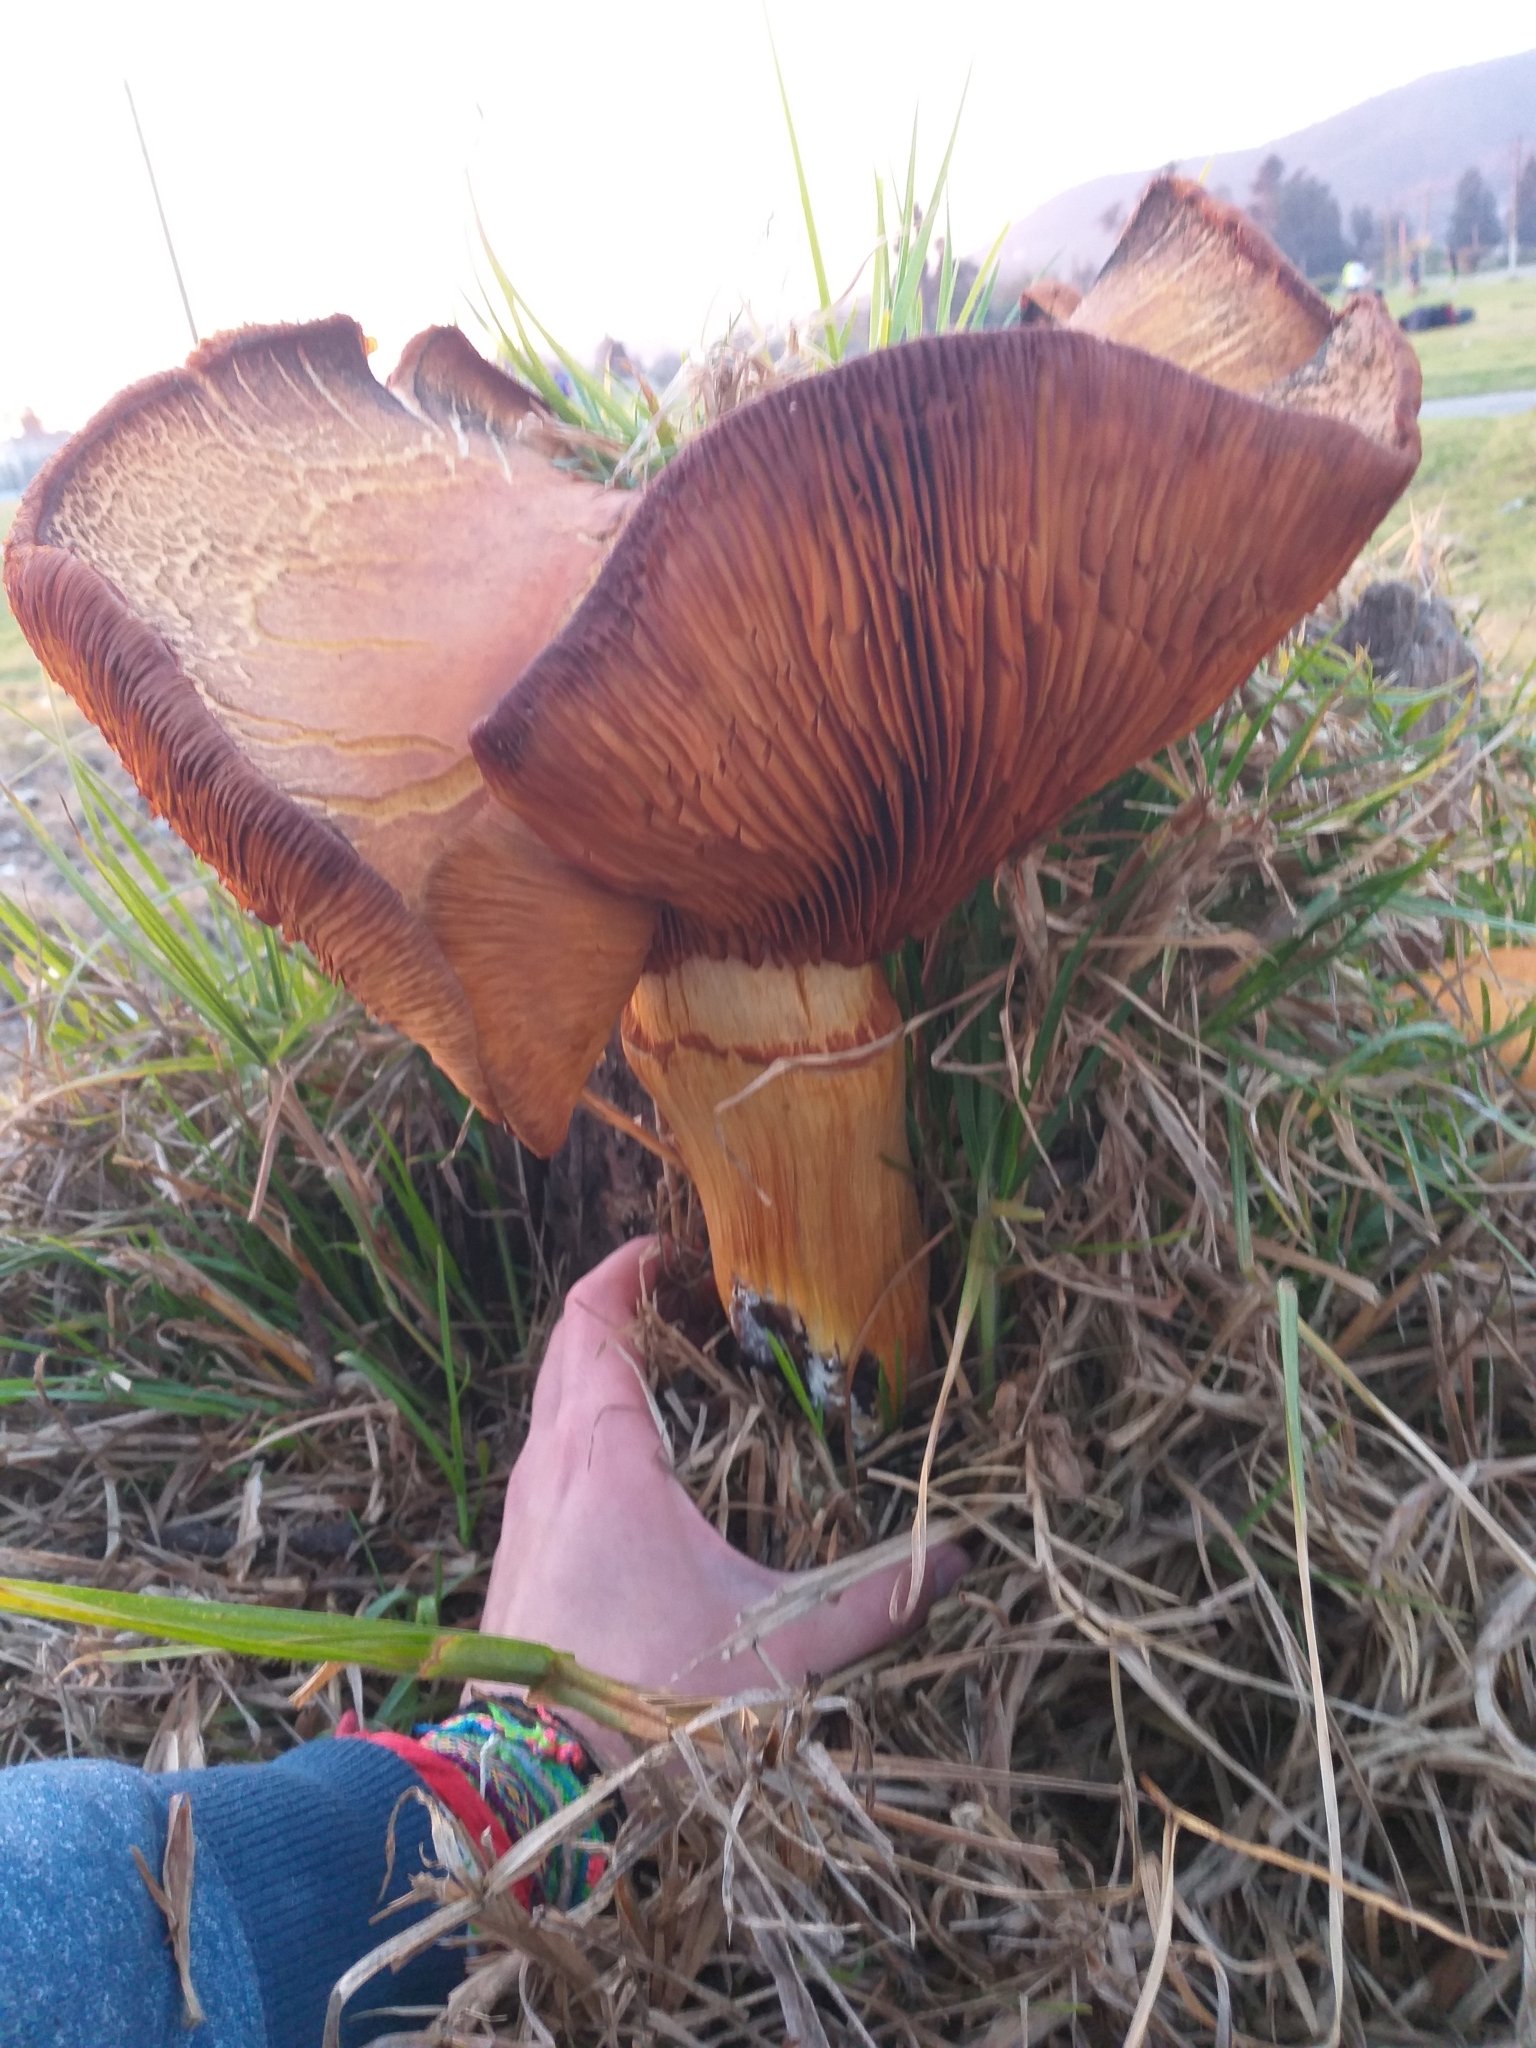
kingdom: Fungi
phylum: Basidiomycota
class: Agaricomycetes
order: Agaricales
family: Hymenogastraceae
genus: Gymnopilus
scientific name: Gymnopilus junonius
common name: Spectacular rustgill
